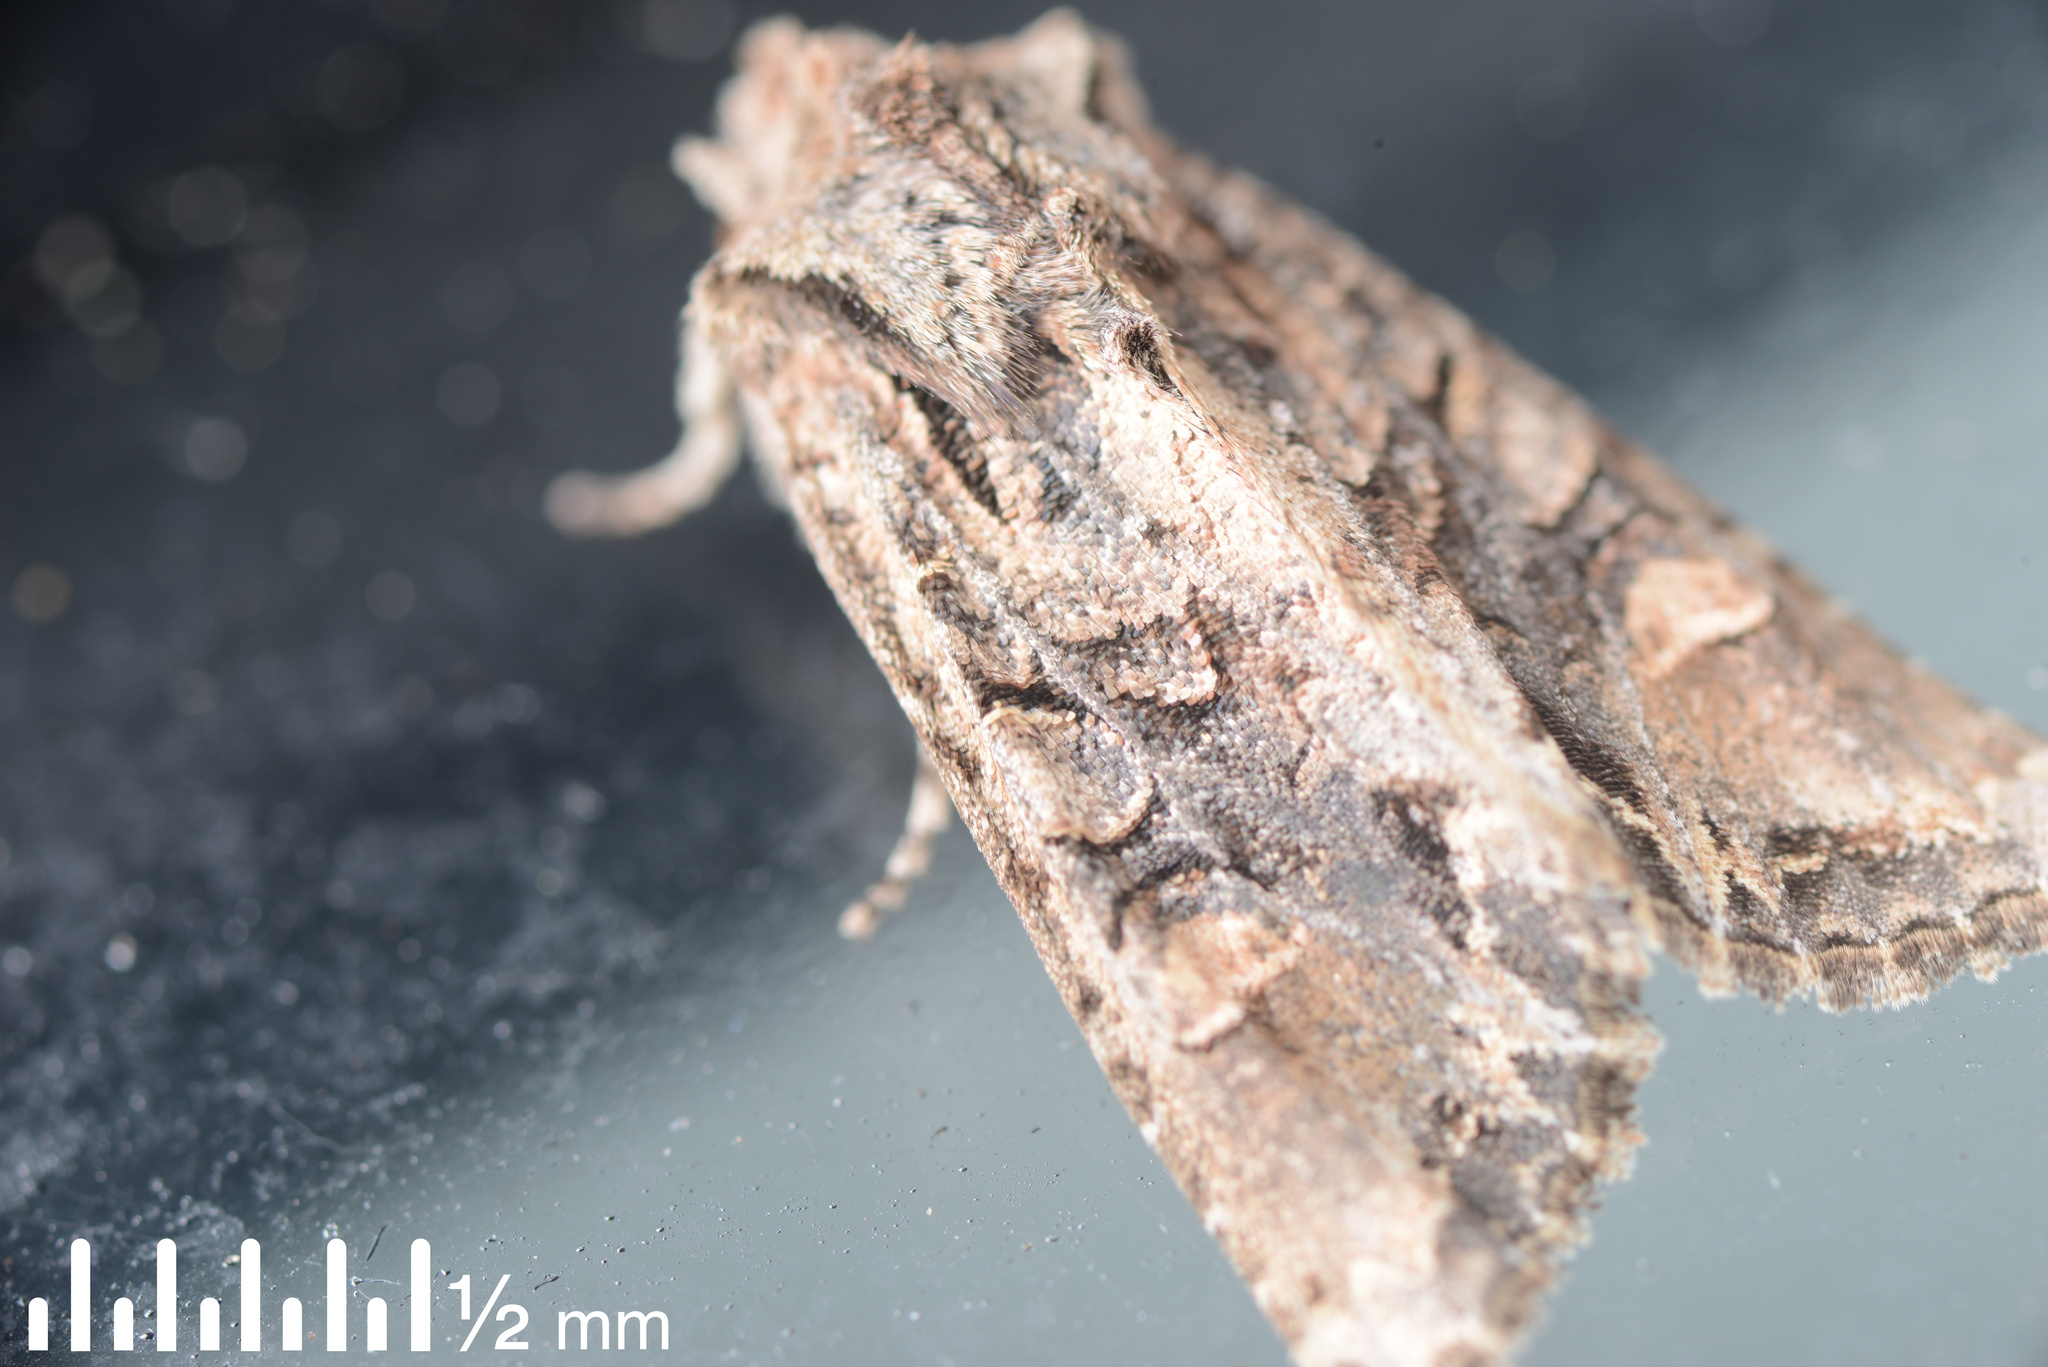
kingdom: Animalia
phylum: Arthropoda
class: Insecta
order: Lepidoptera
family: Noctuidae
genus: Ichneutica
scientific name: Ichneutica insignis
